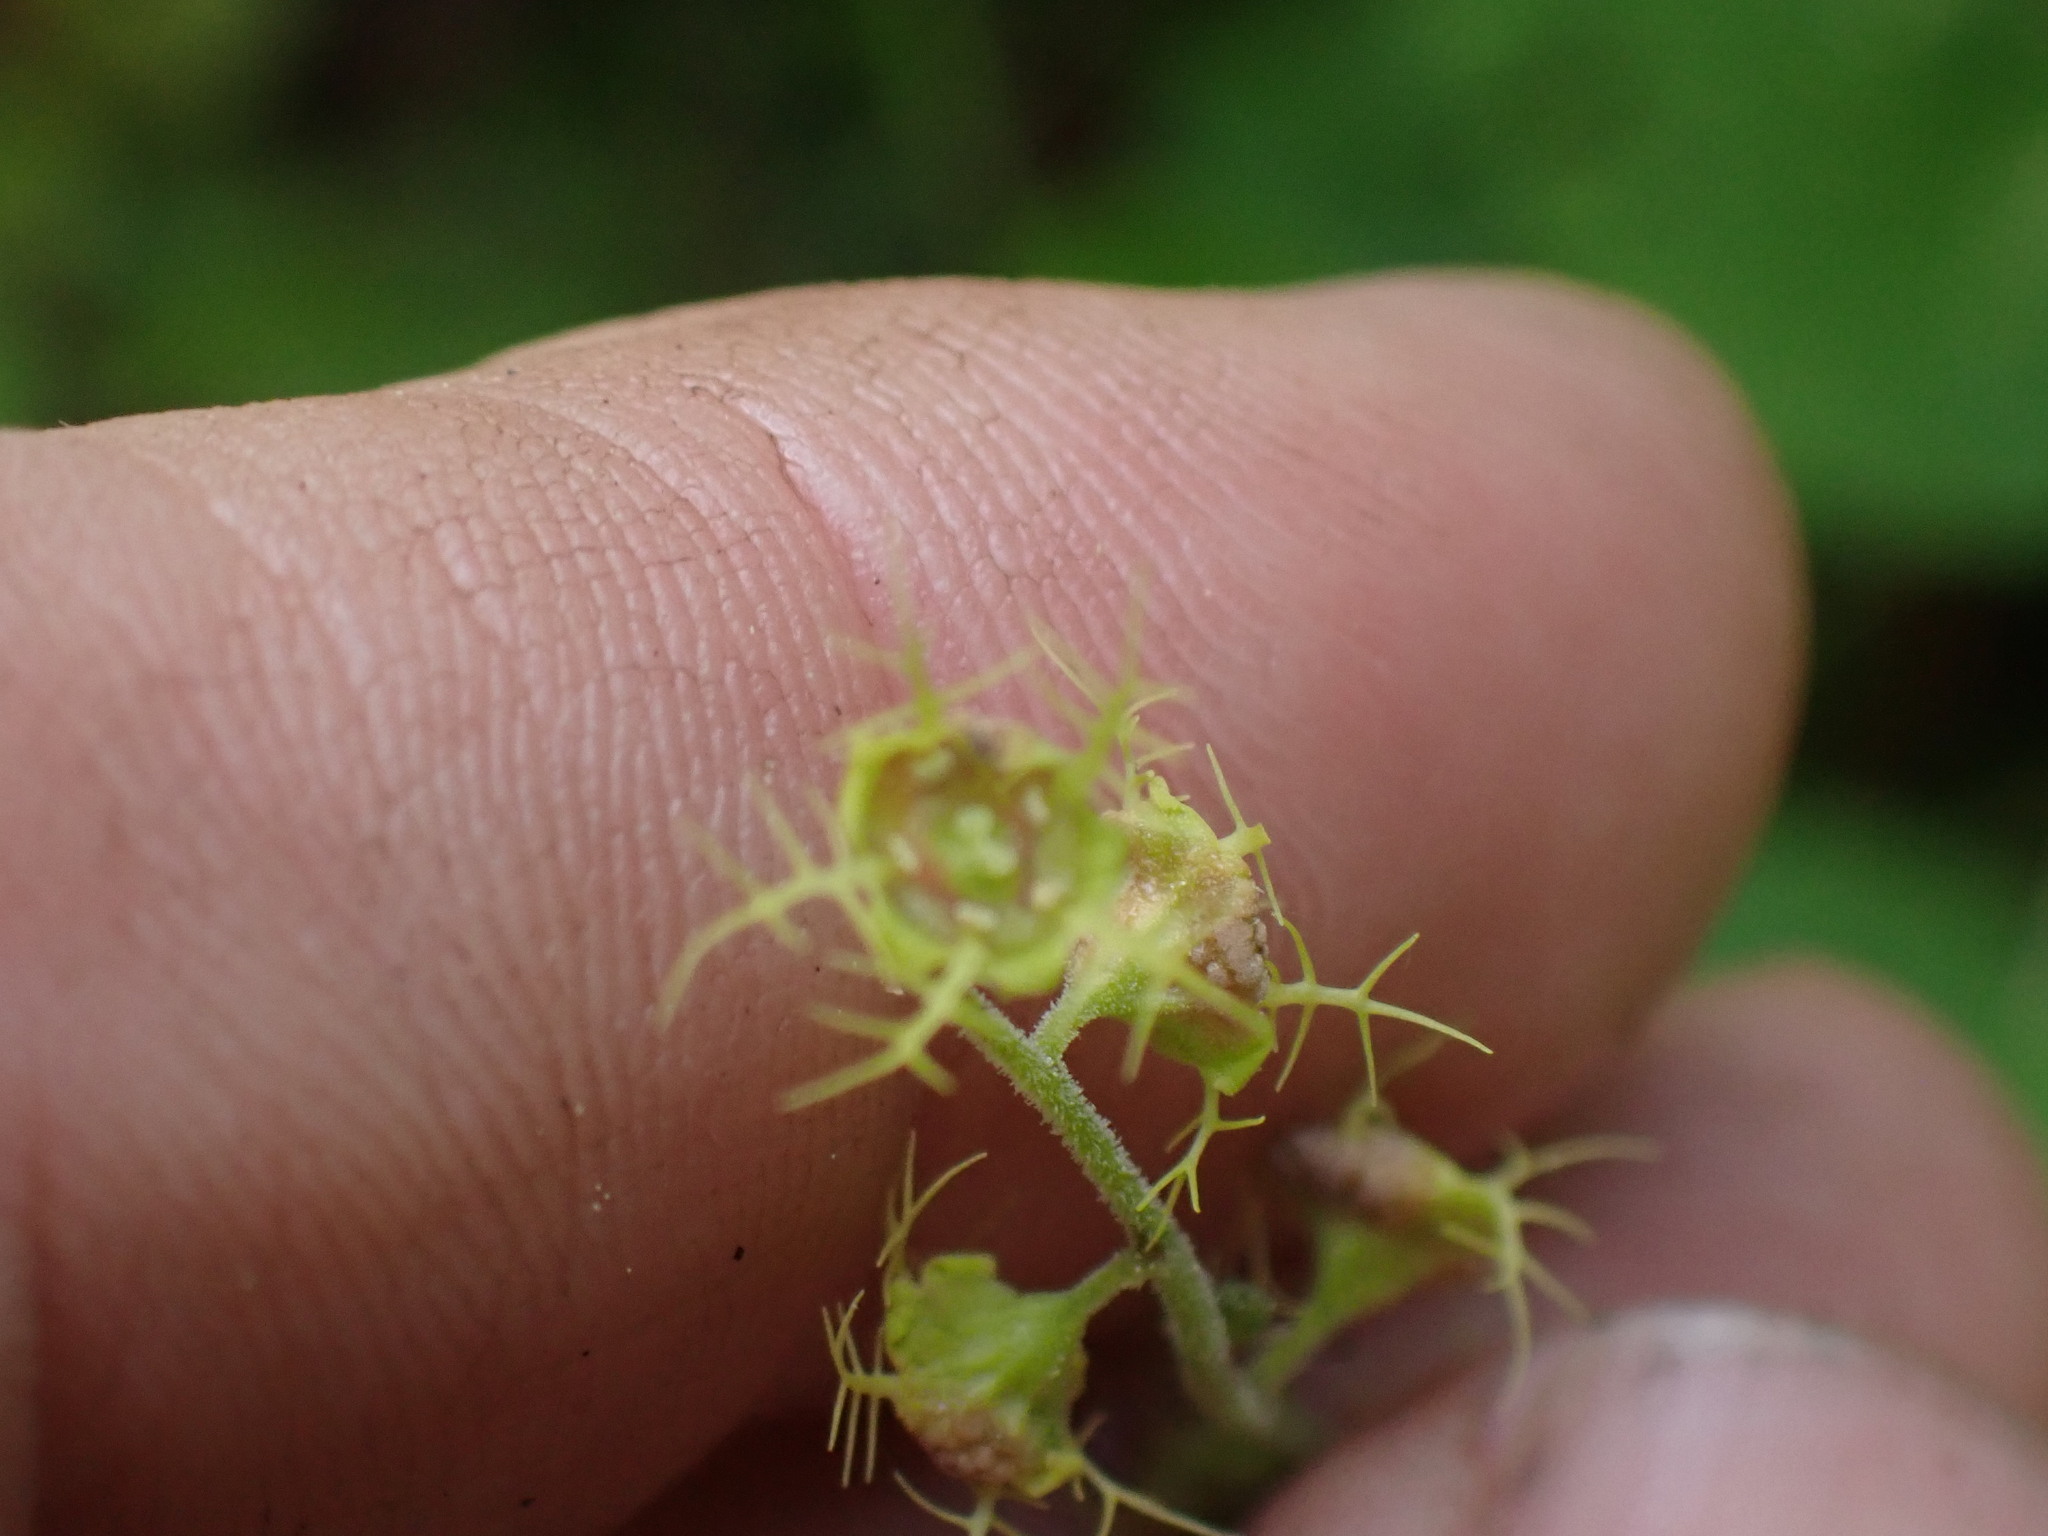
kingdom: Plantae
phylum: Tracheophyta
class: Magnoliopsida
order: Saxifragales
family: Saxifragaceae
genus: Pectiantia
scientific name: Pectiantia pentandra
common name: Alpine bishop's-cap
